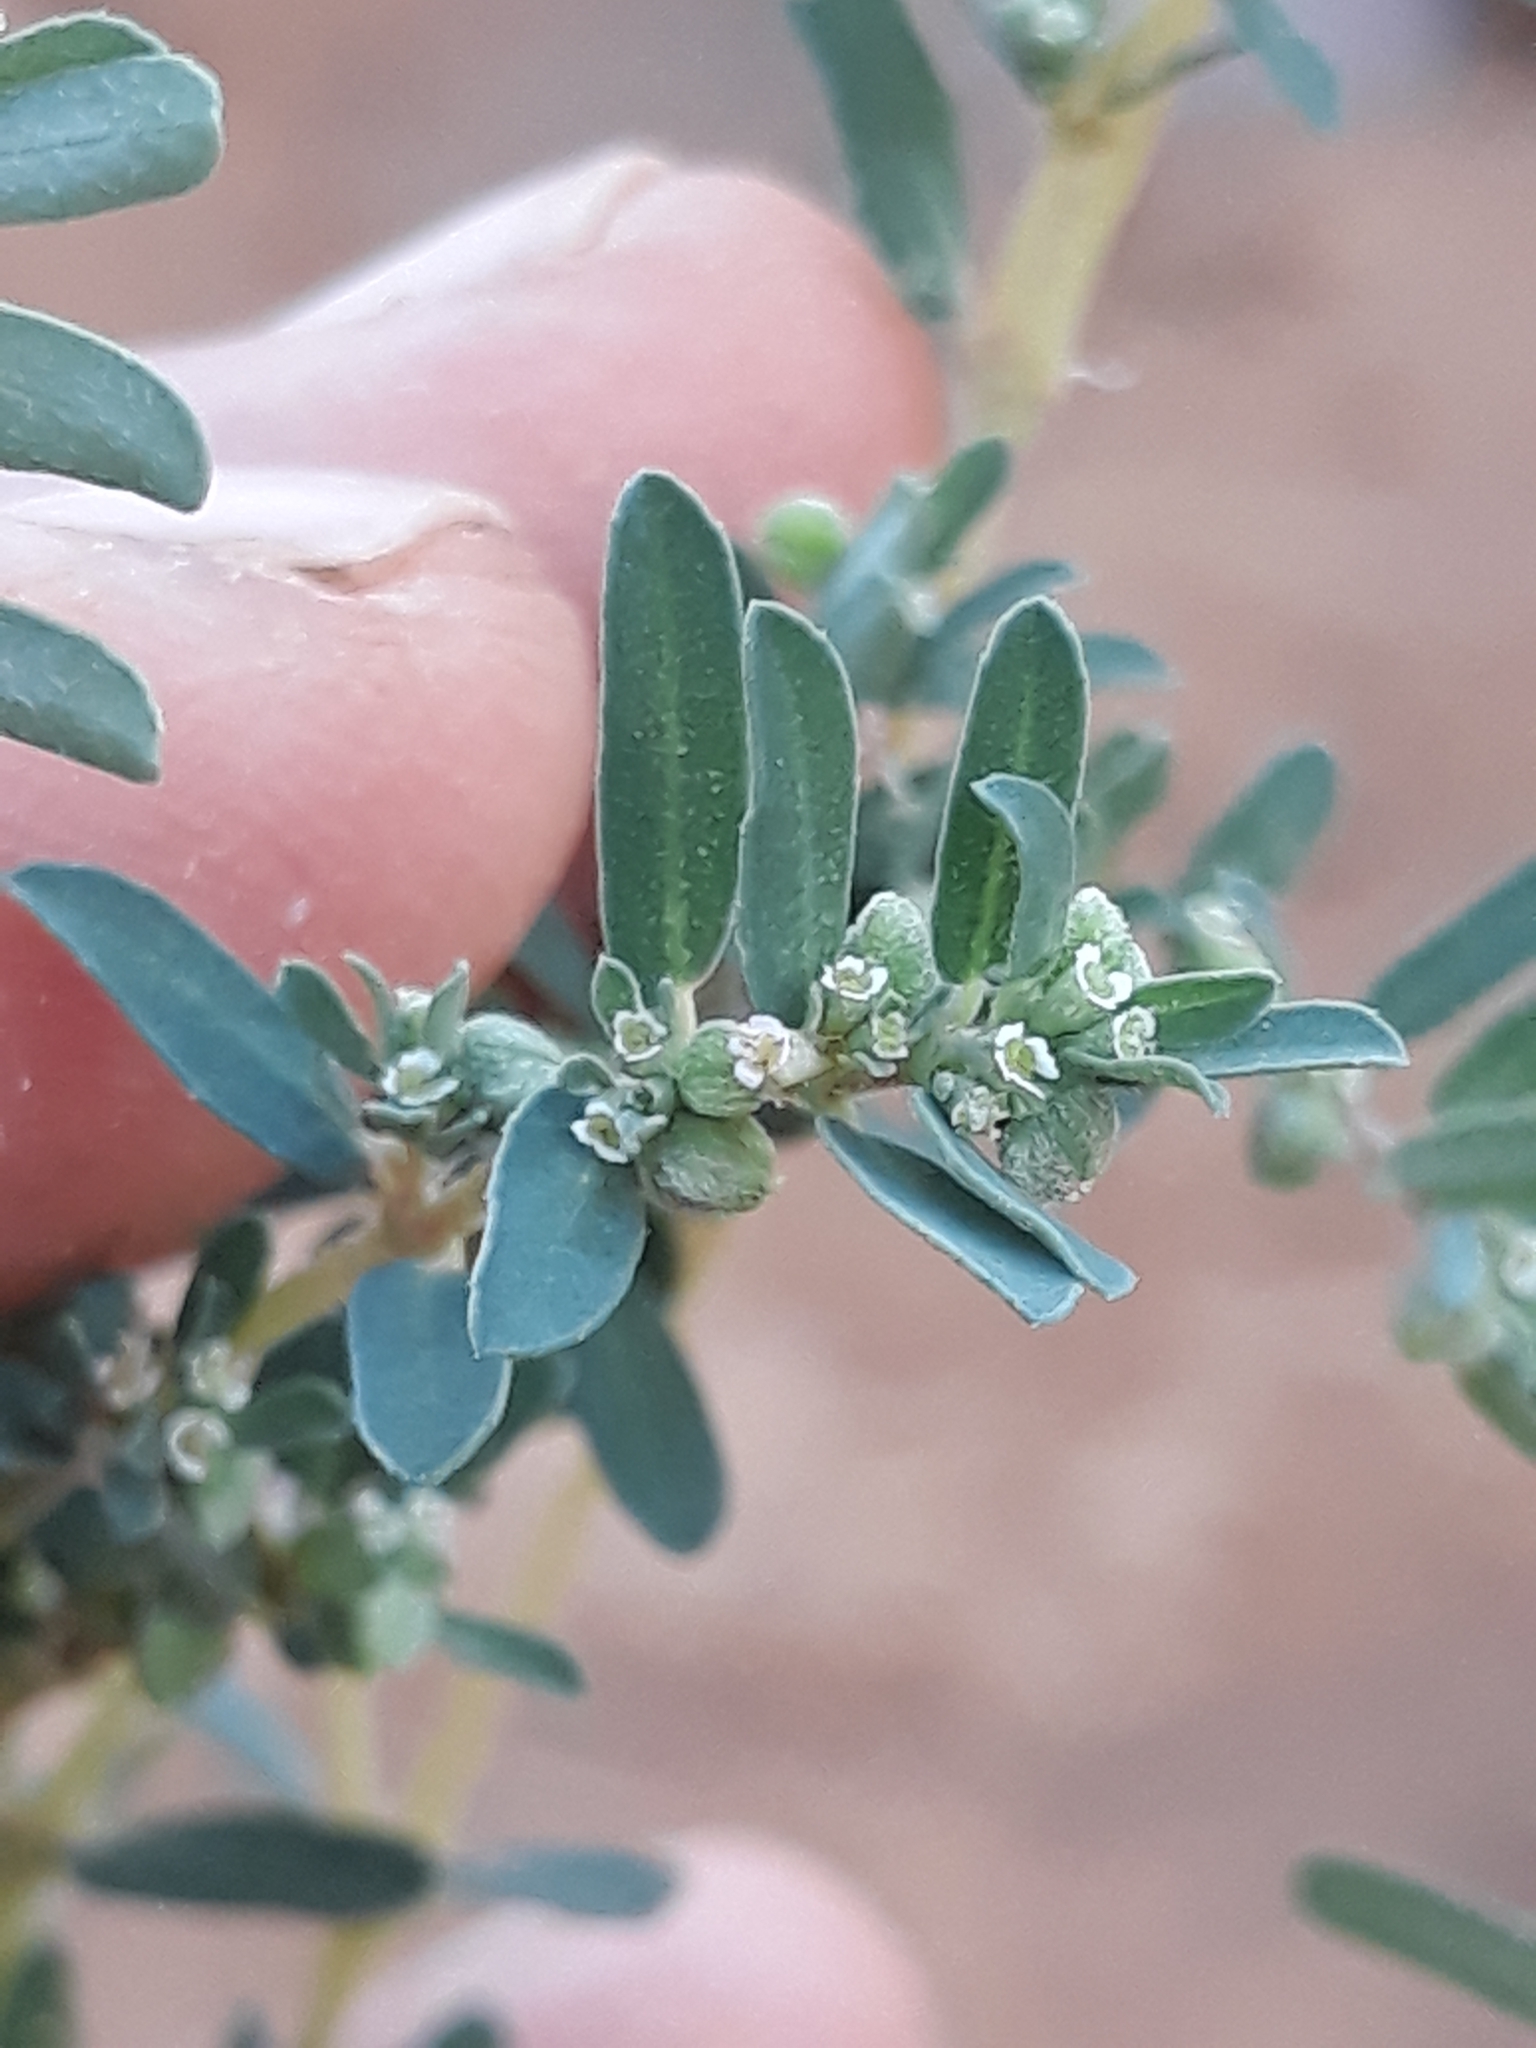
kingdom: Plantae
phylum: Tracheophyta
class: Magnoliopsida
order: Malpighiales
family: Euphorbiaceae
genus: Euphorbia
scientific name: Euphorbia maculata
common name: Spotted spurge
